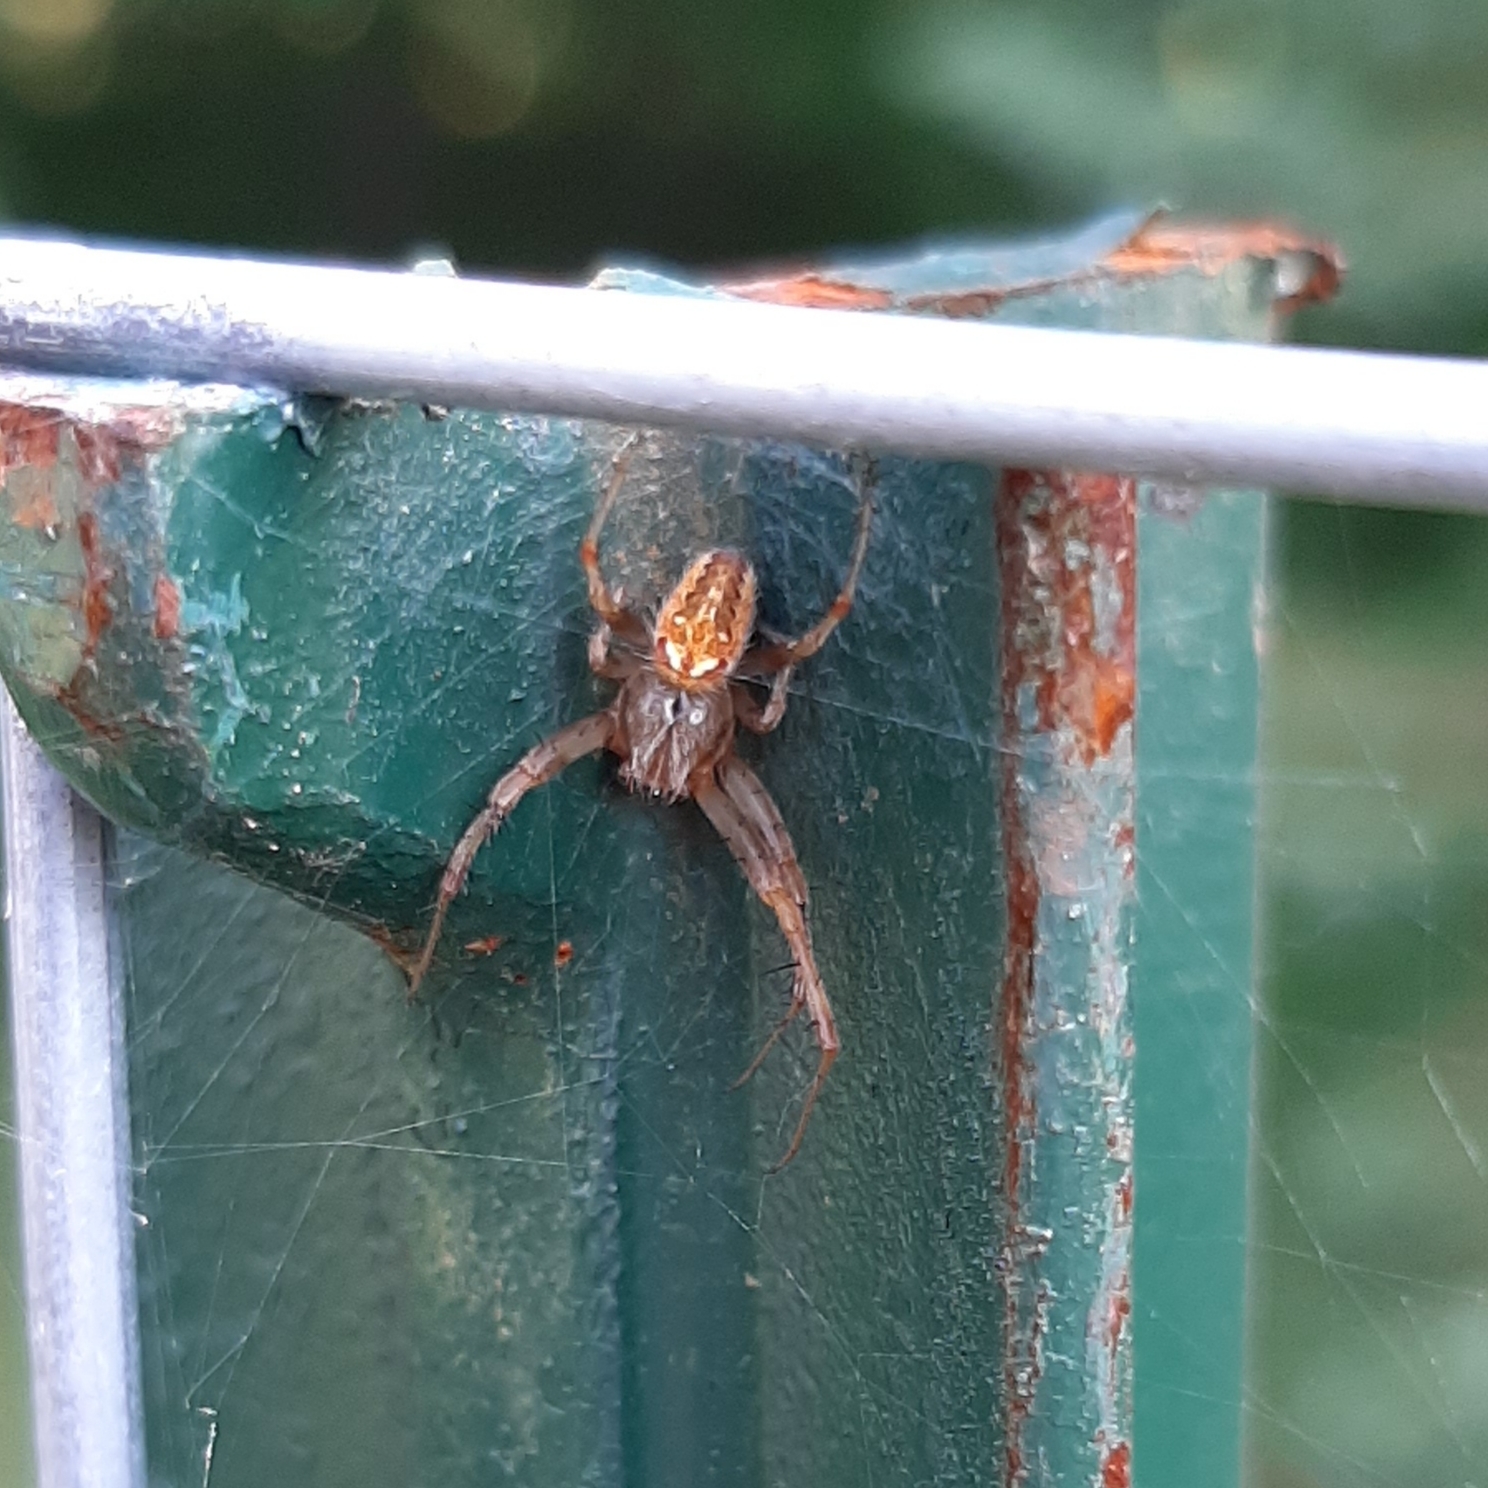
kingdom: Animalia
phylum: Arthropoda
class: Arachnida
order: Araneae
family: Araneidae
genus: Neoscona
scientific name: Neoscona arabesca
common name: Orb weavers
